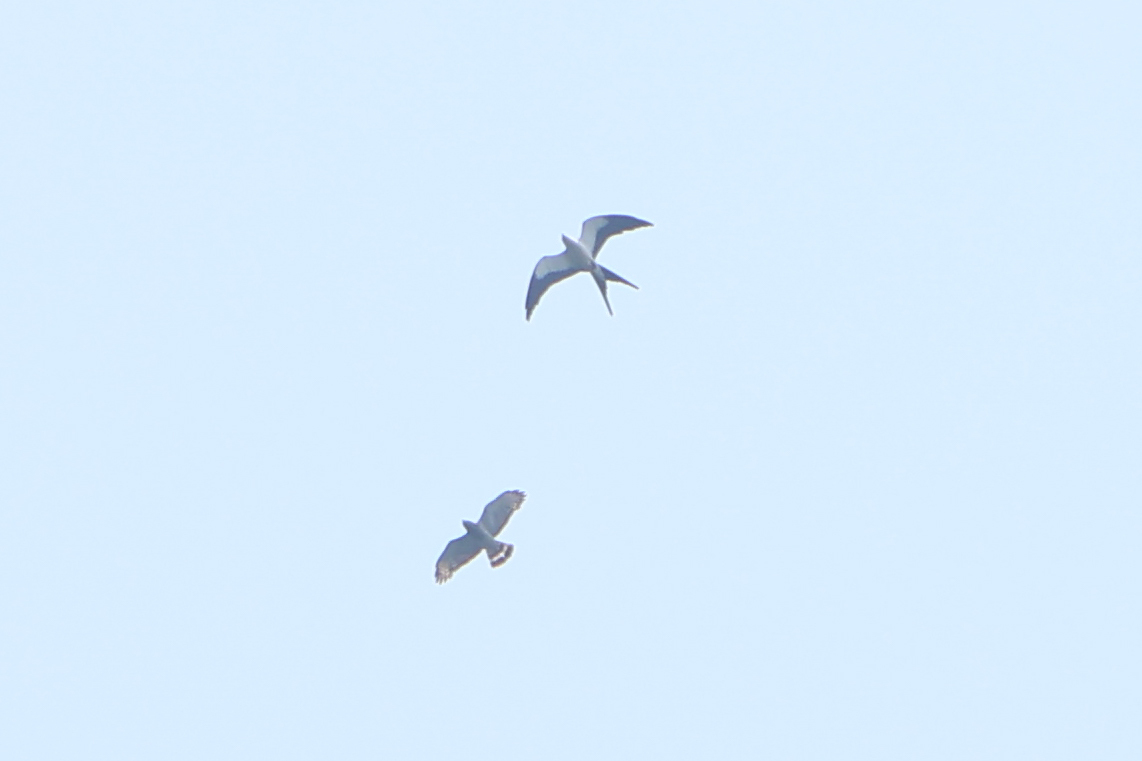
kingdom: Animalia
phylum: Chordata
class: Aves
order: Accipitriformes
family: Accipitridae
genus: Buteo
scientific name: Buteo platypterus
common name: Broad-winged hawk
